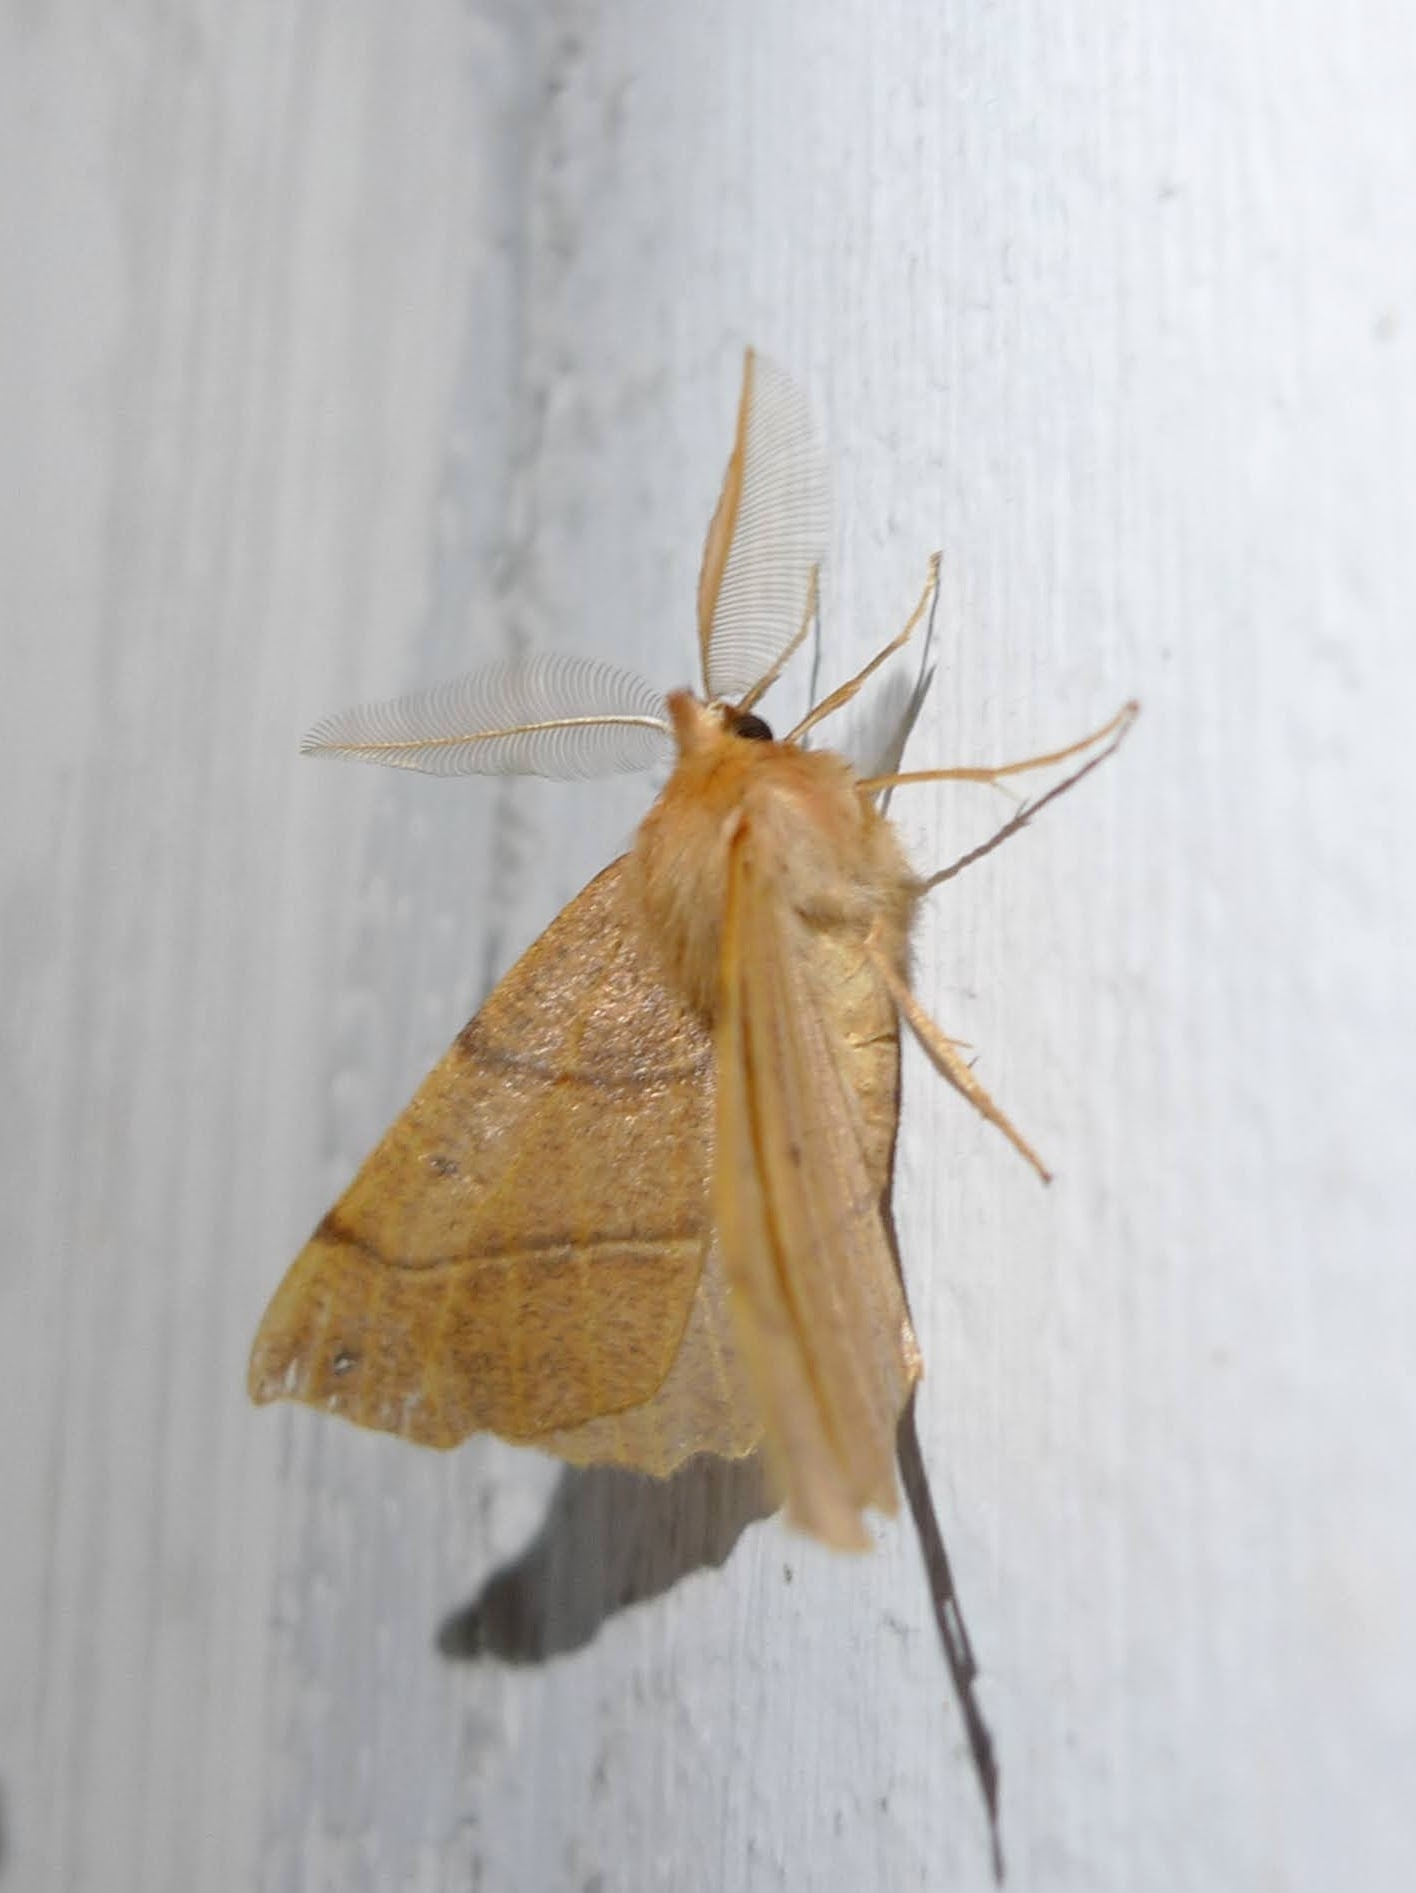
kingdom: Animalia
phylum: Arthropoda
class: Insecta
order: Lepidoptera
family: Geometridae
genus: Colotois
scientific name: Colotois pennaria
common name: Feathered thorn
